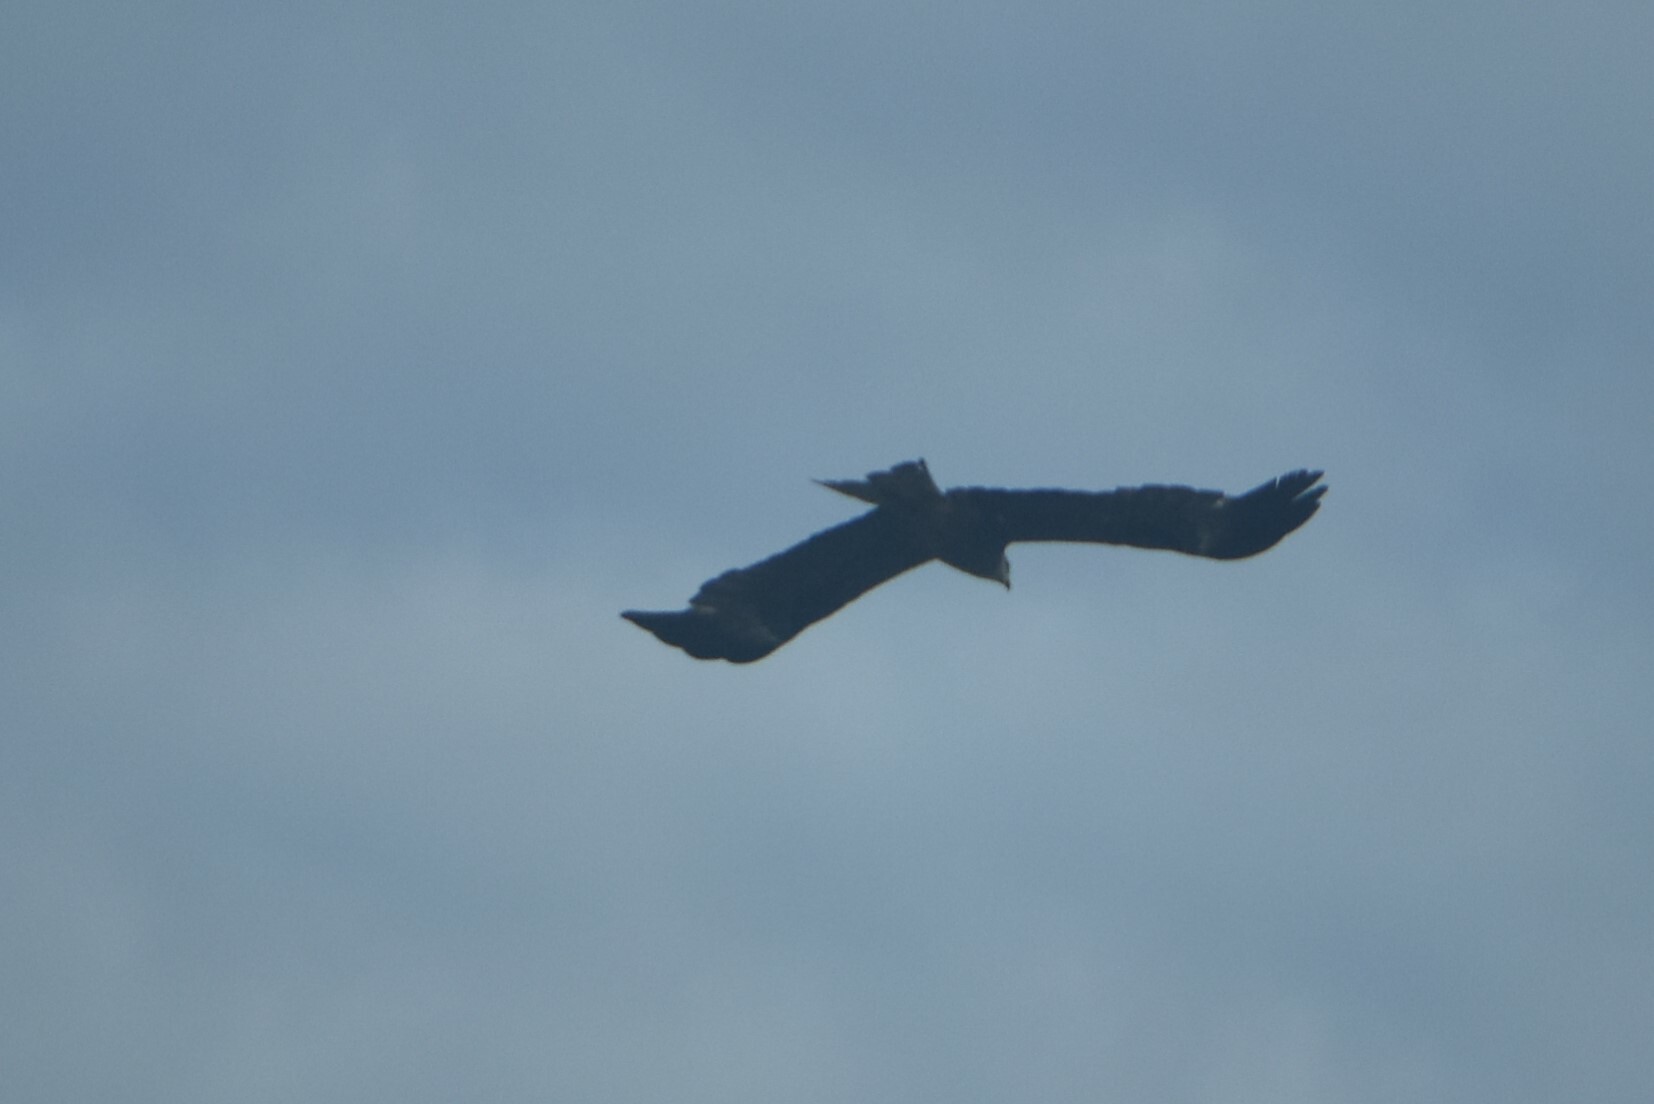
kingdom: Animalia
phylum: Chordata
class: Aves
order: Accipitriformes
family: Accipitridae
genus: Milvus
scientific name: Milvus migrans
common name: Black kite
